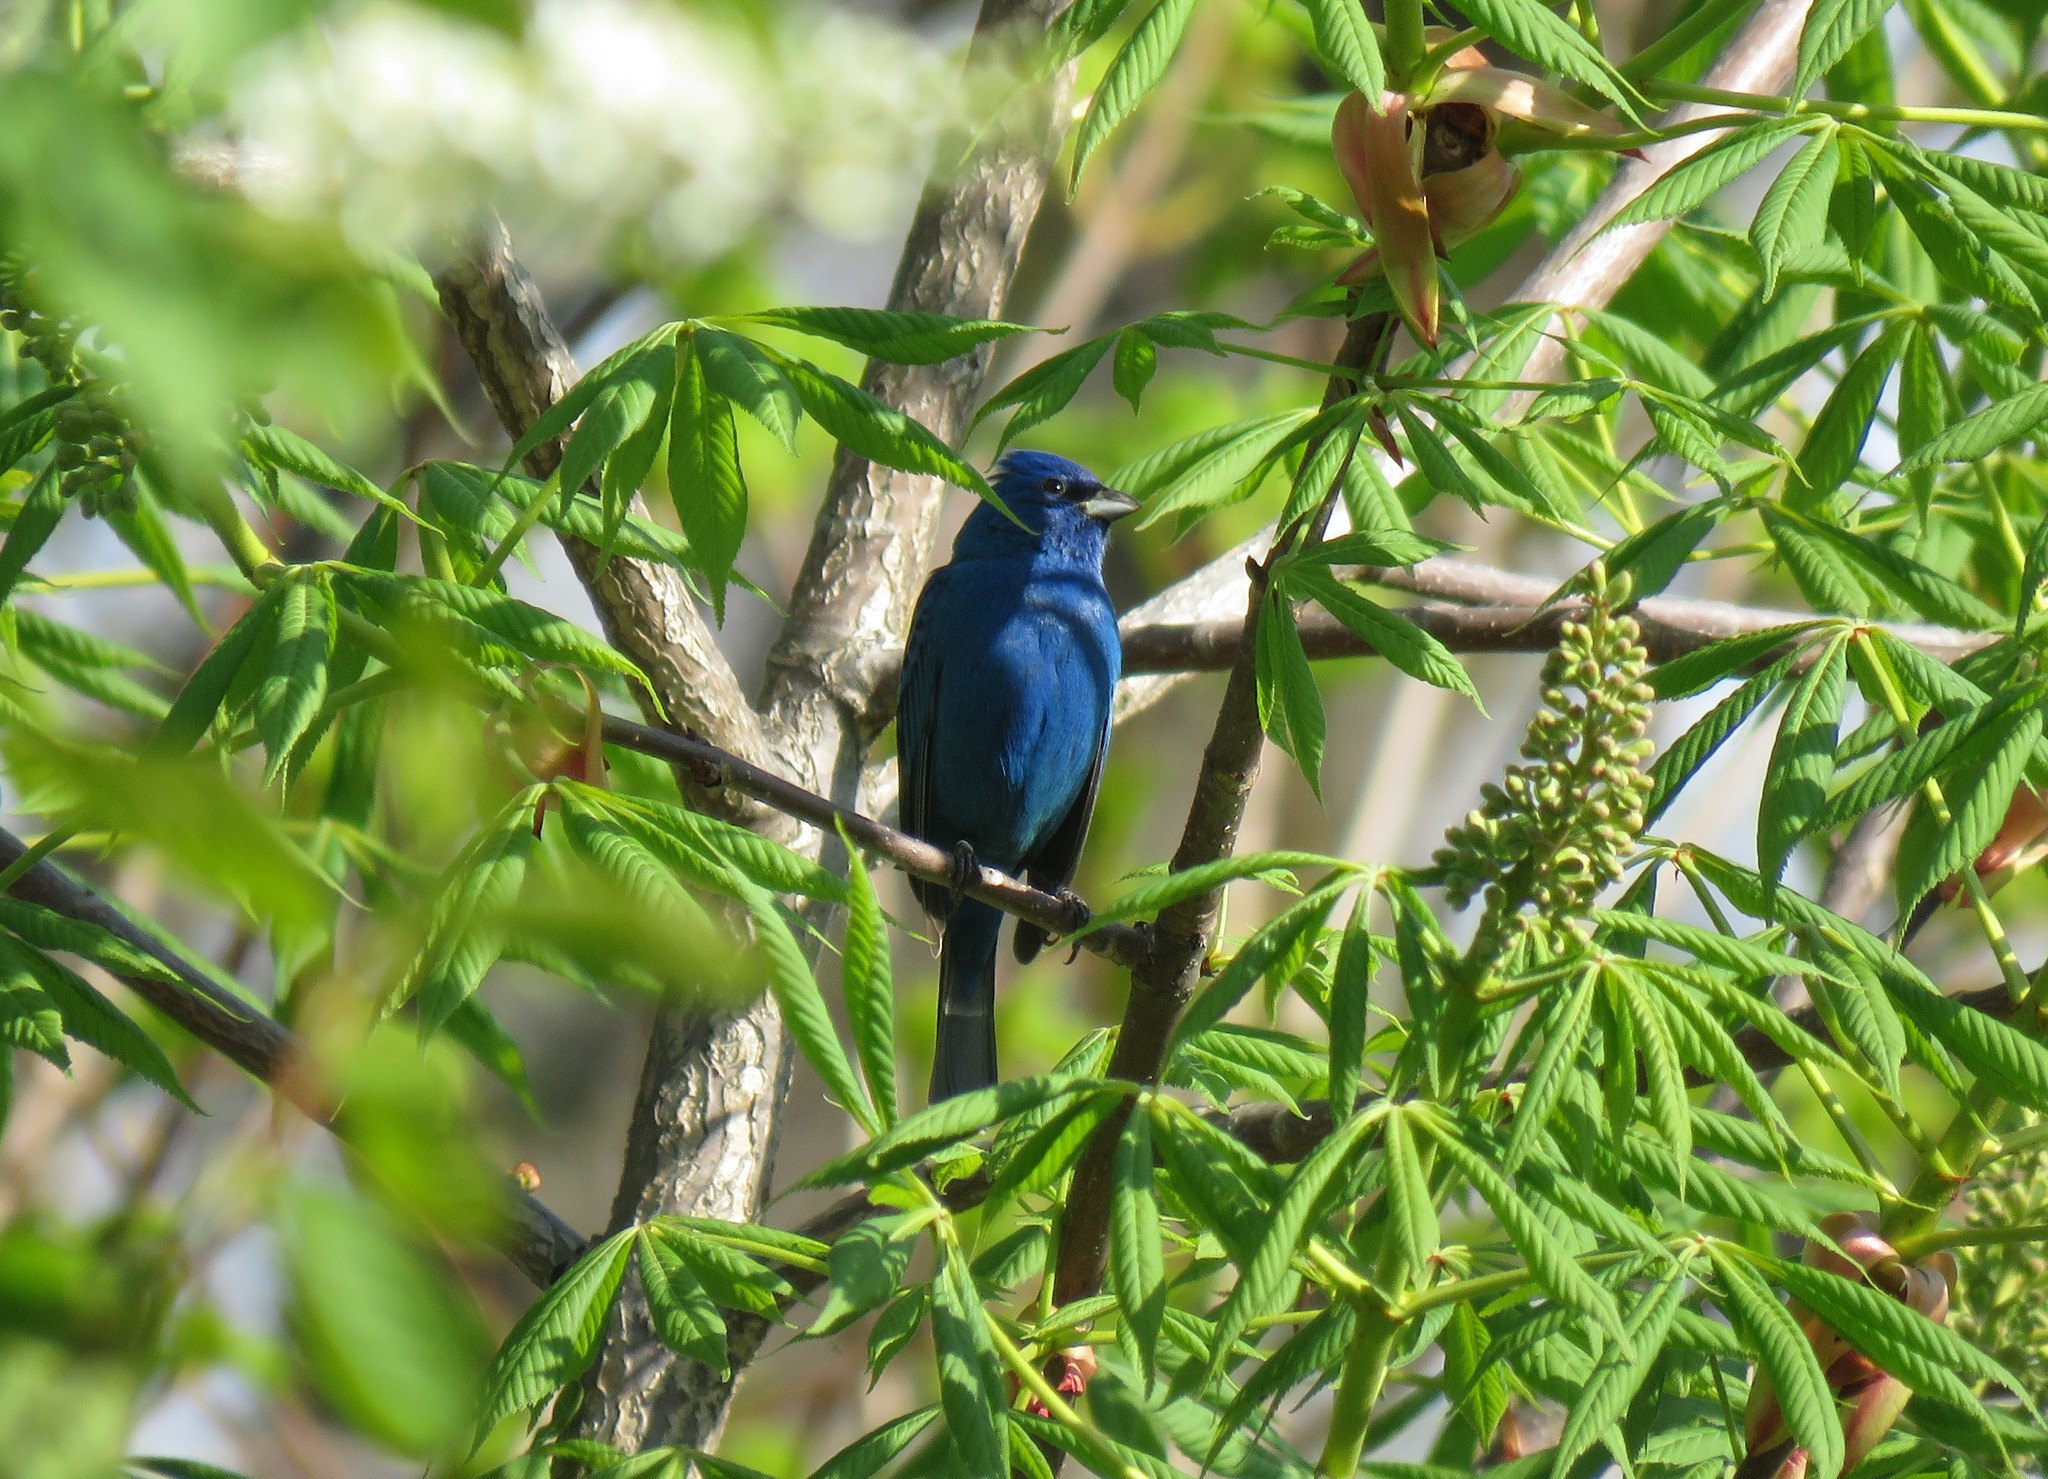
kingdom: Animalia
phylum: Chordata
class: Aves
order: Passeriformes
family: Cardinalidae
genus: Passerina
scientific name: Passerina cyanea
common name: Indigo bunting
